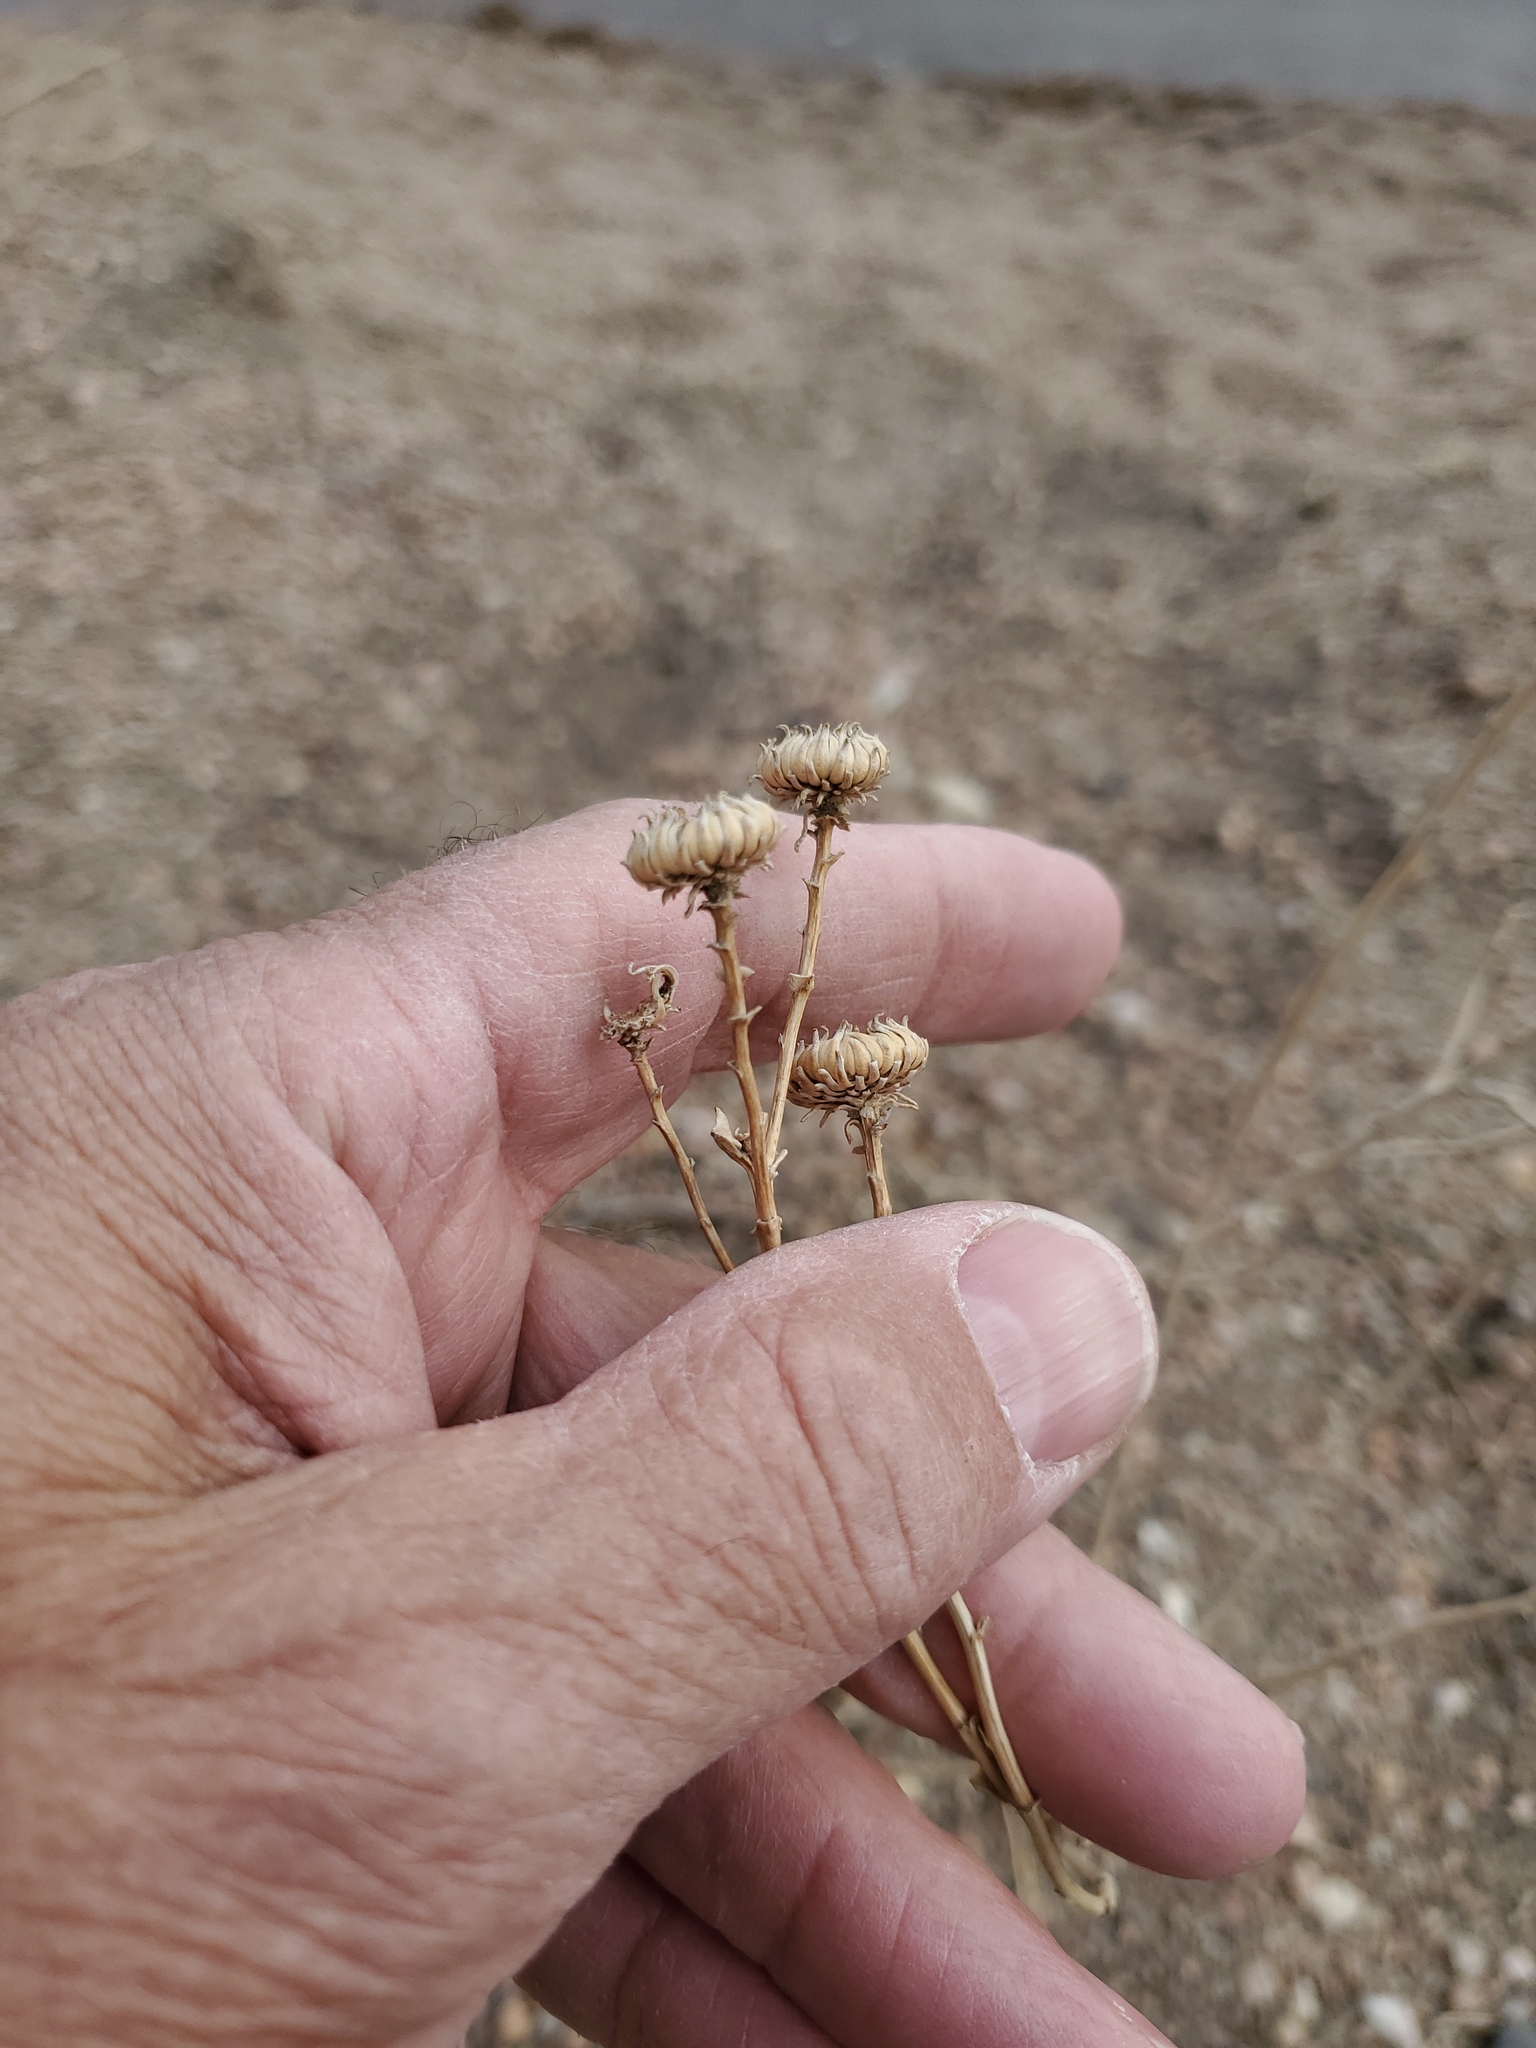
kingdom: Plantae
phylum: Tracheophyta
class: Magnoliopsida
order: Asterales
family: Asteraceae
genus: Grindelia
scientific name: Grindelia squarrosa
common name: Curly-cup gumweed
